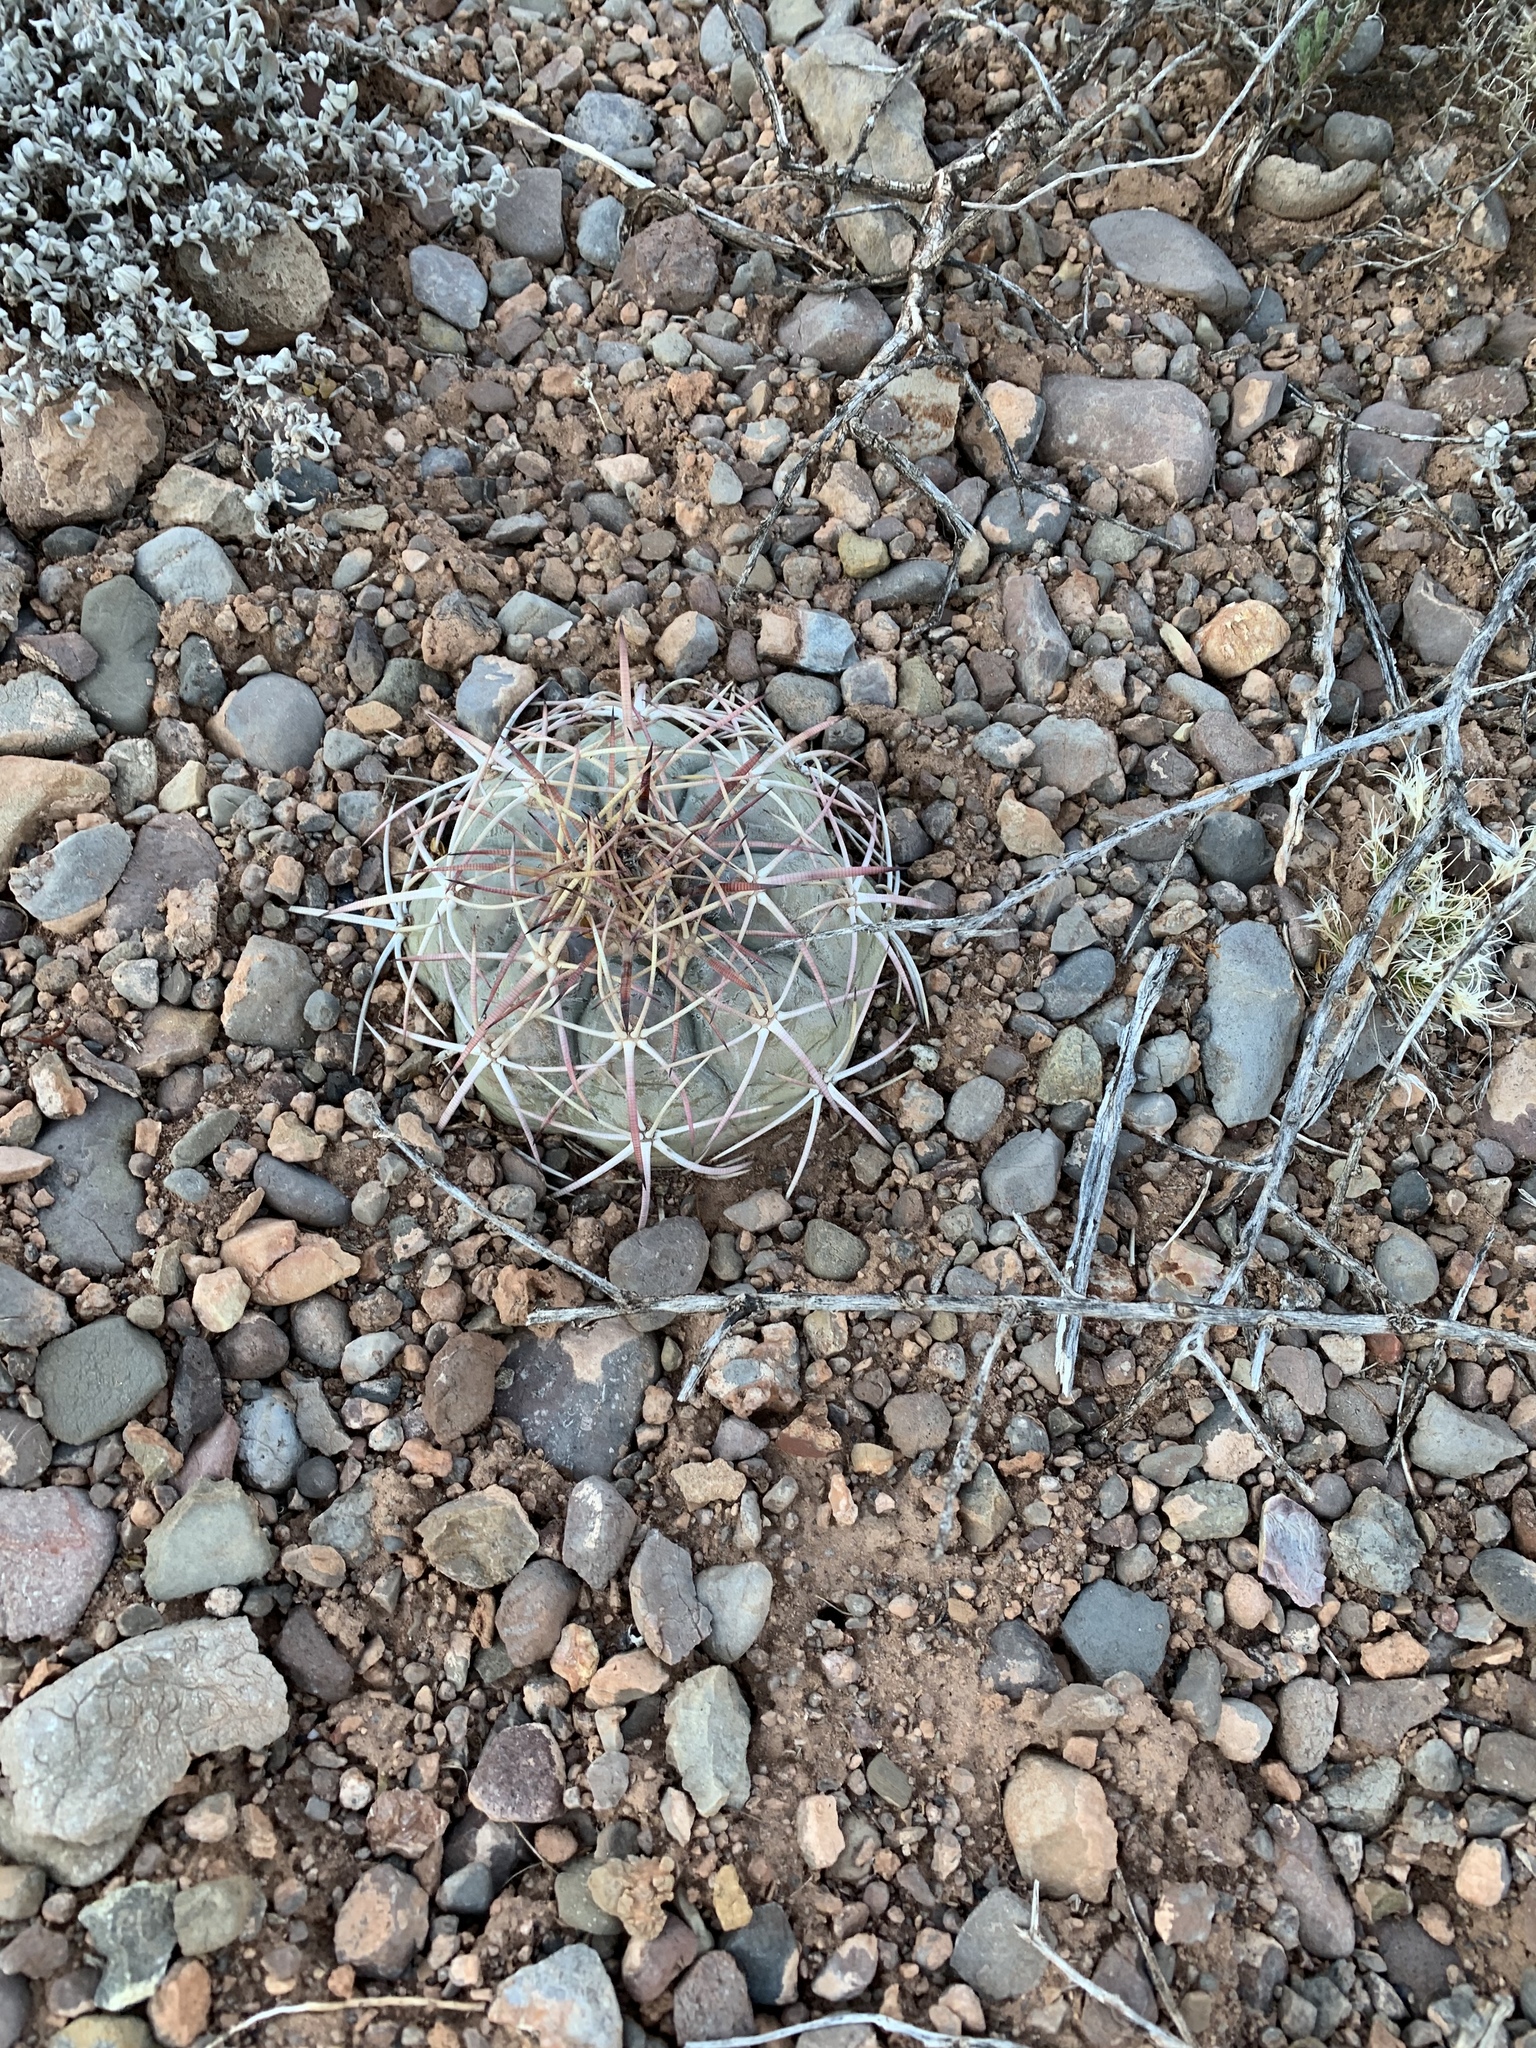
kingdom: Plantae
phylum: Tracheophyta
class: Magnoliopsida
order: Caryophyllales
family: Cactaceae
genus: Echinocactus
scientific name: Echinocactus horizonthalonius
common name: Devilshead
